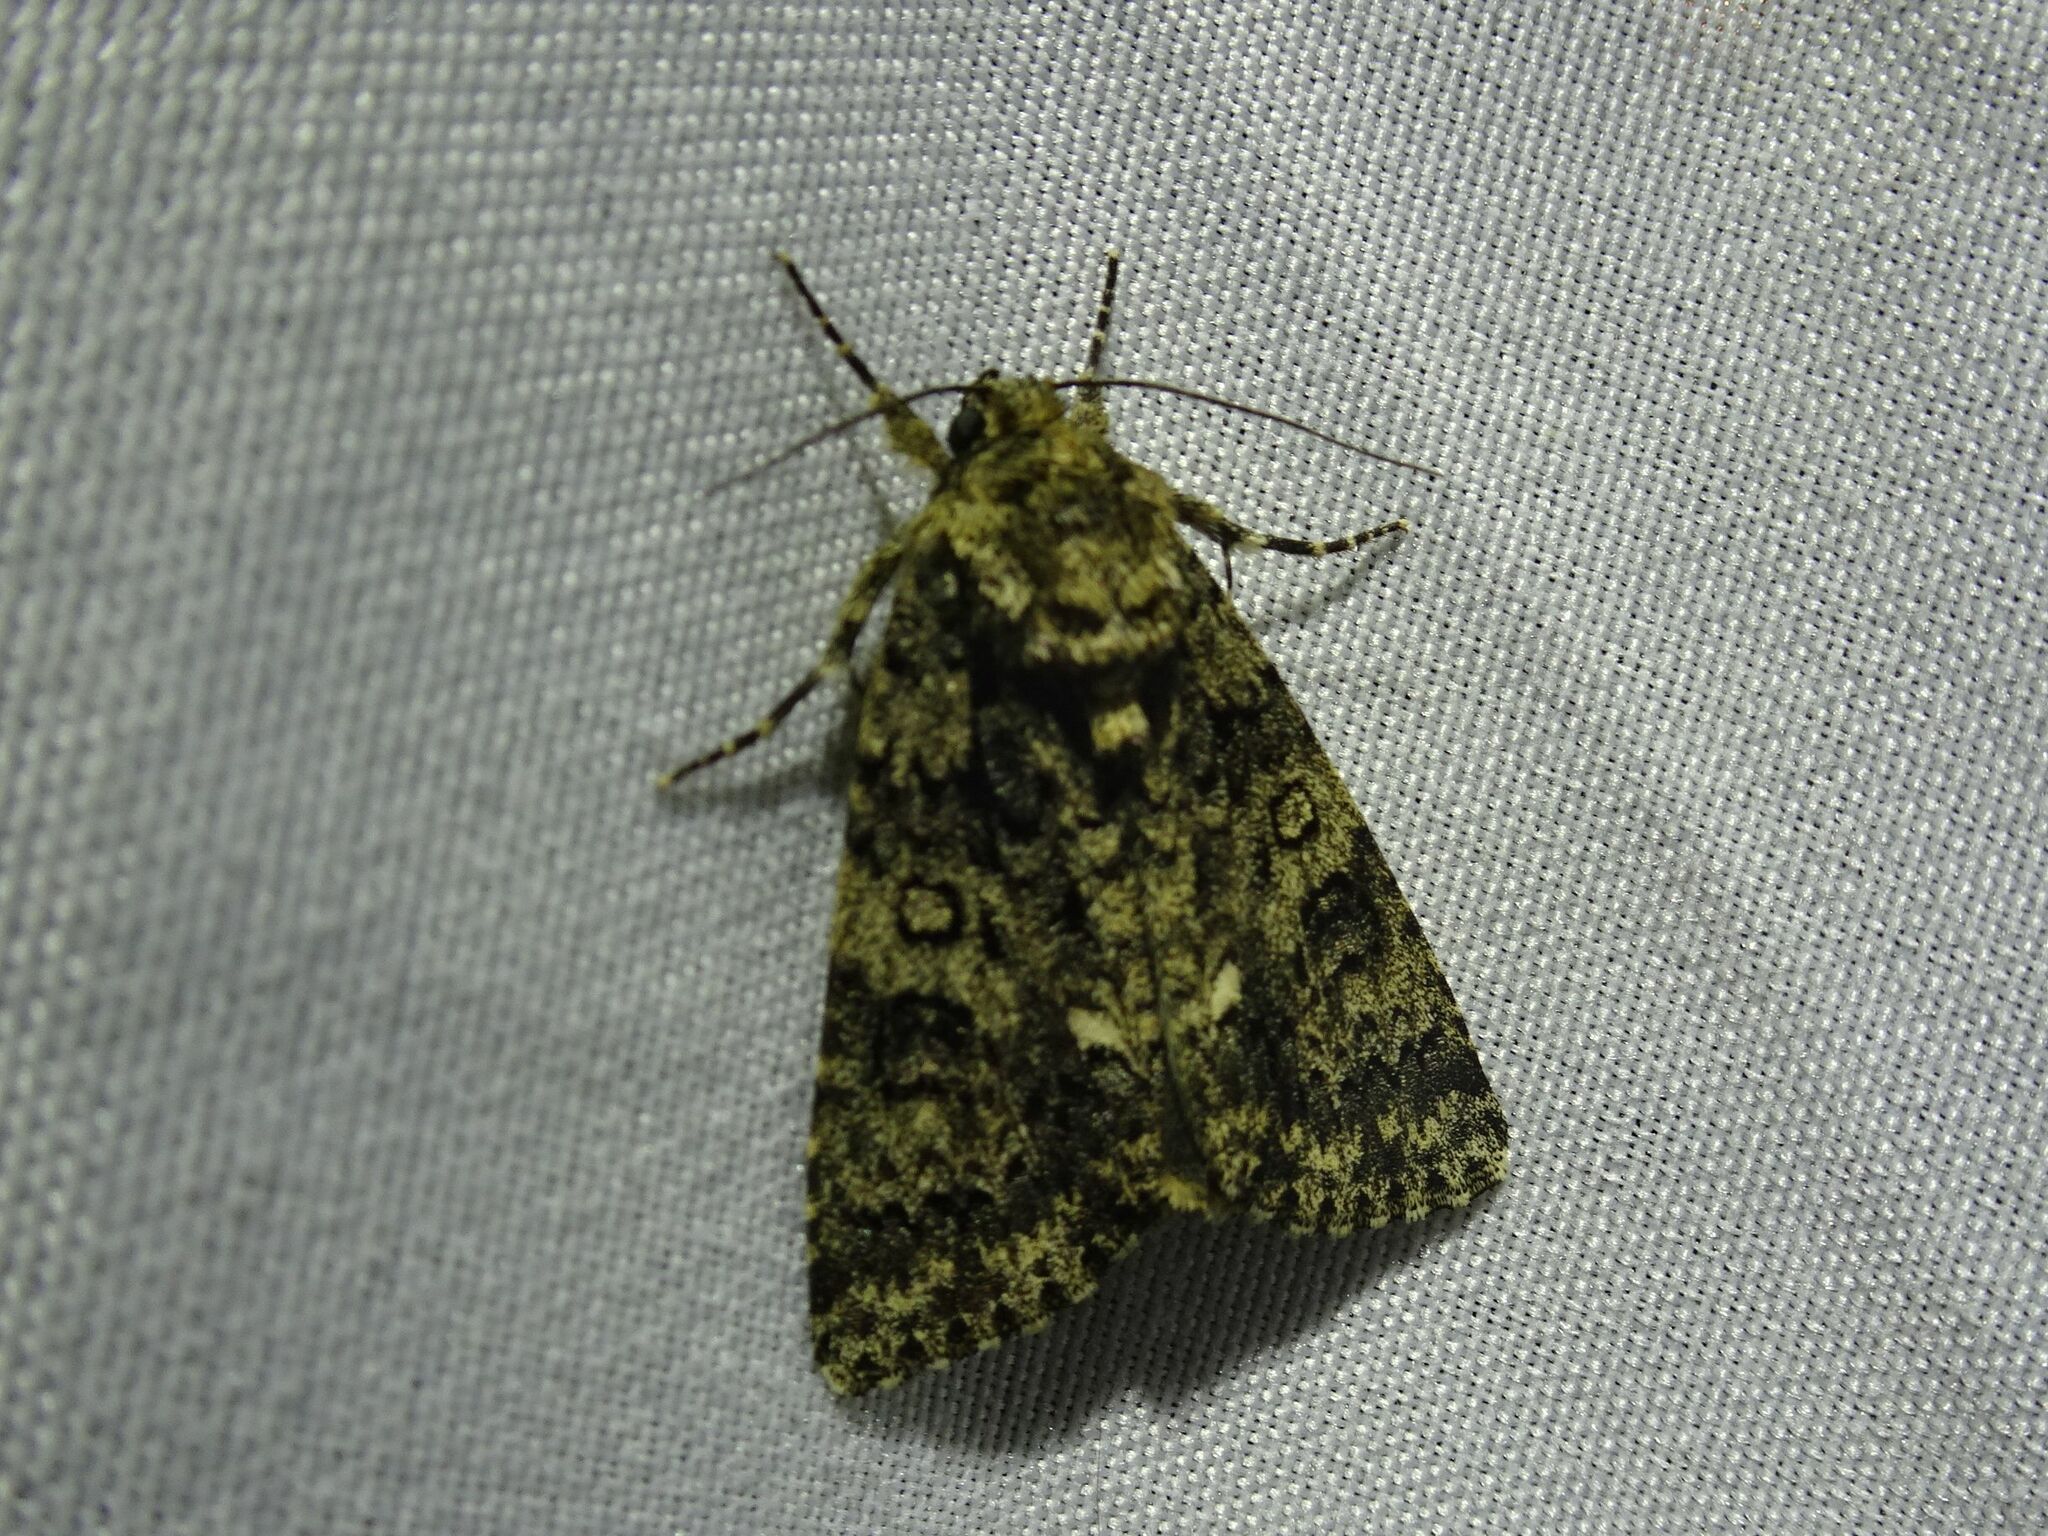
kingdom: Animalia
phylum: Arthropoda
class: Insecta
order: Lepidoptera
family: Noctuidae
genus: Acronicta
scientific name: Acronicta rumicis
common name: Knot grass
